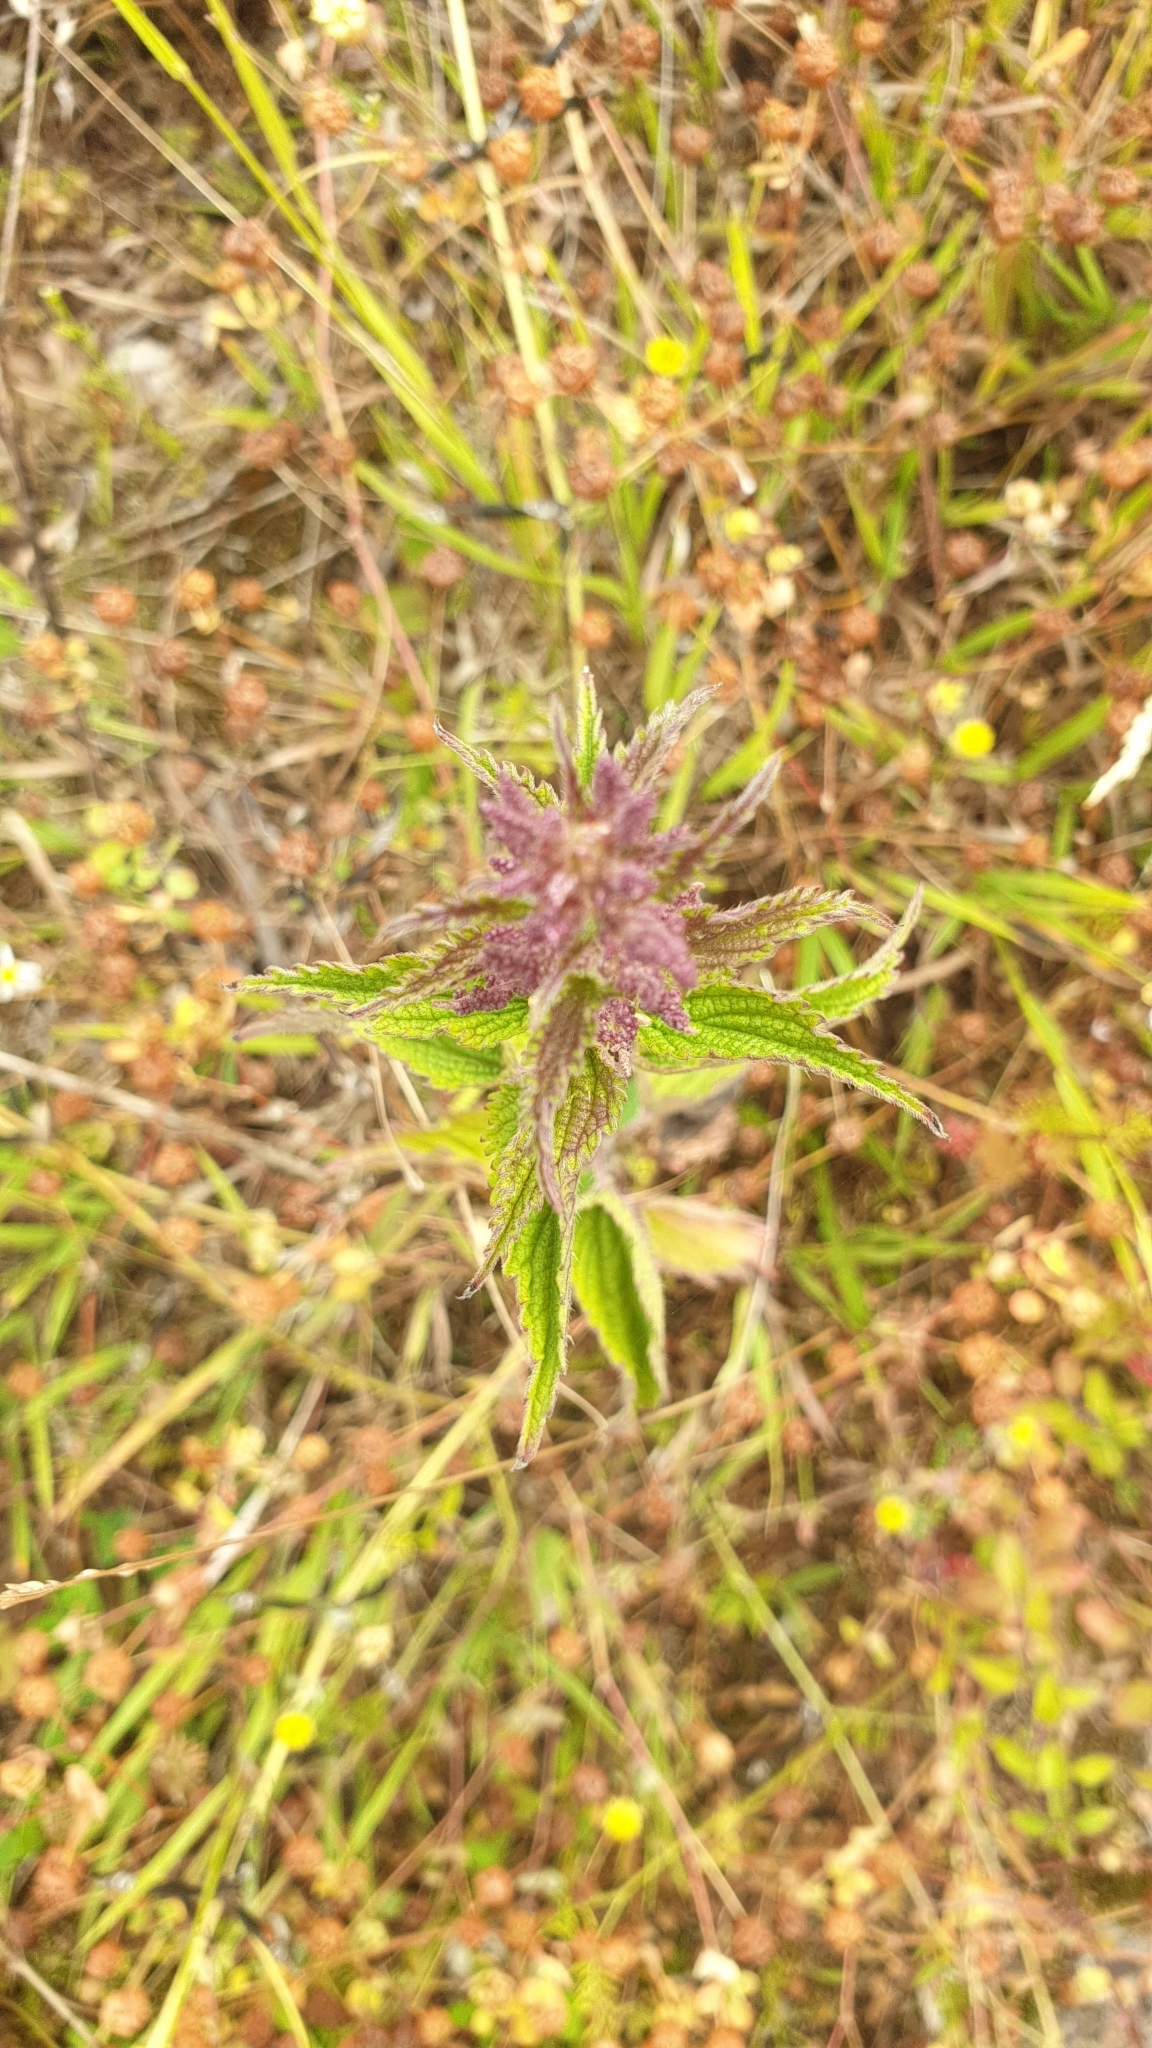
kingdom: Plantae
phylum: Tracheophyta
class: Magnoliopsida
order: Rosales
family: Urticaceae
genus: Urtica
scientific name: Urtica dioica
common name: Common nettle
